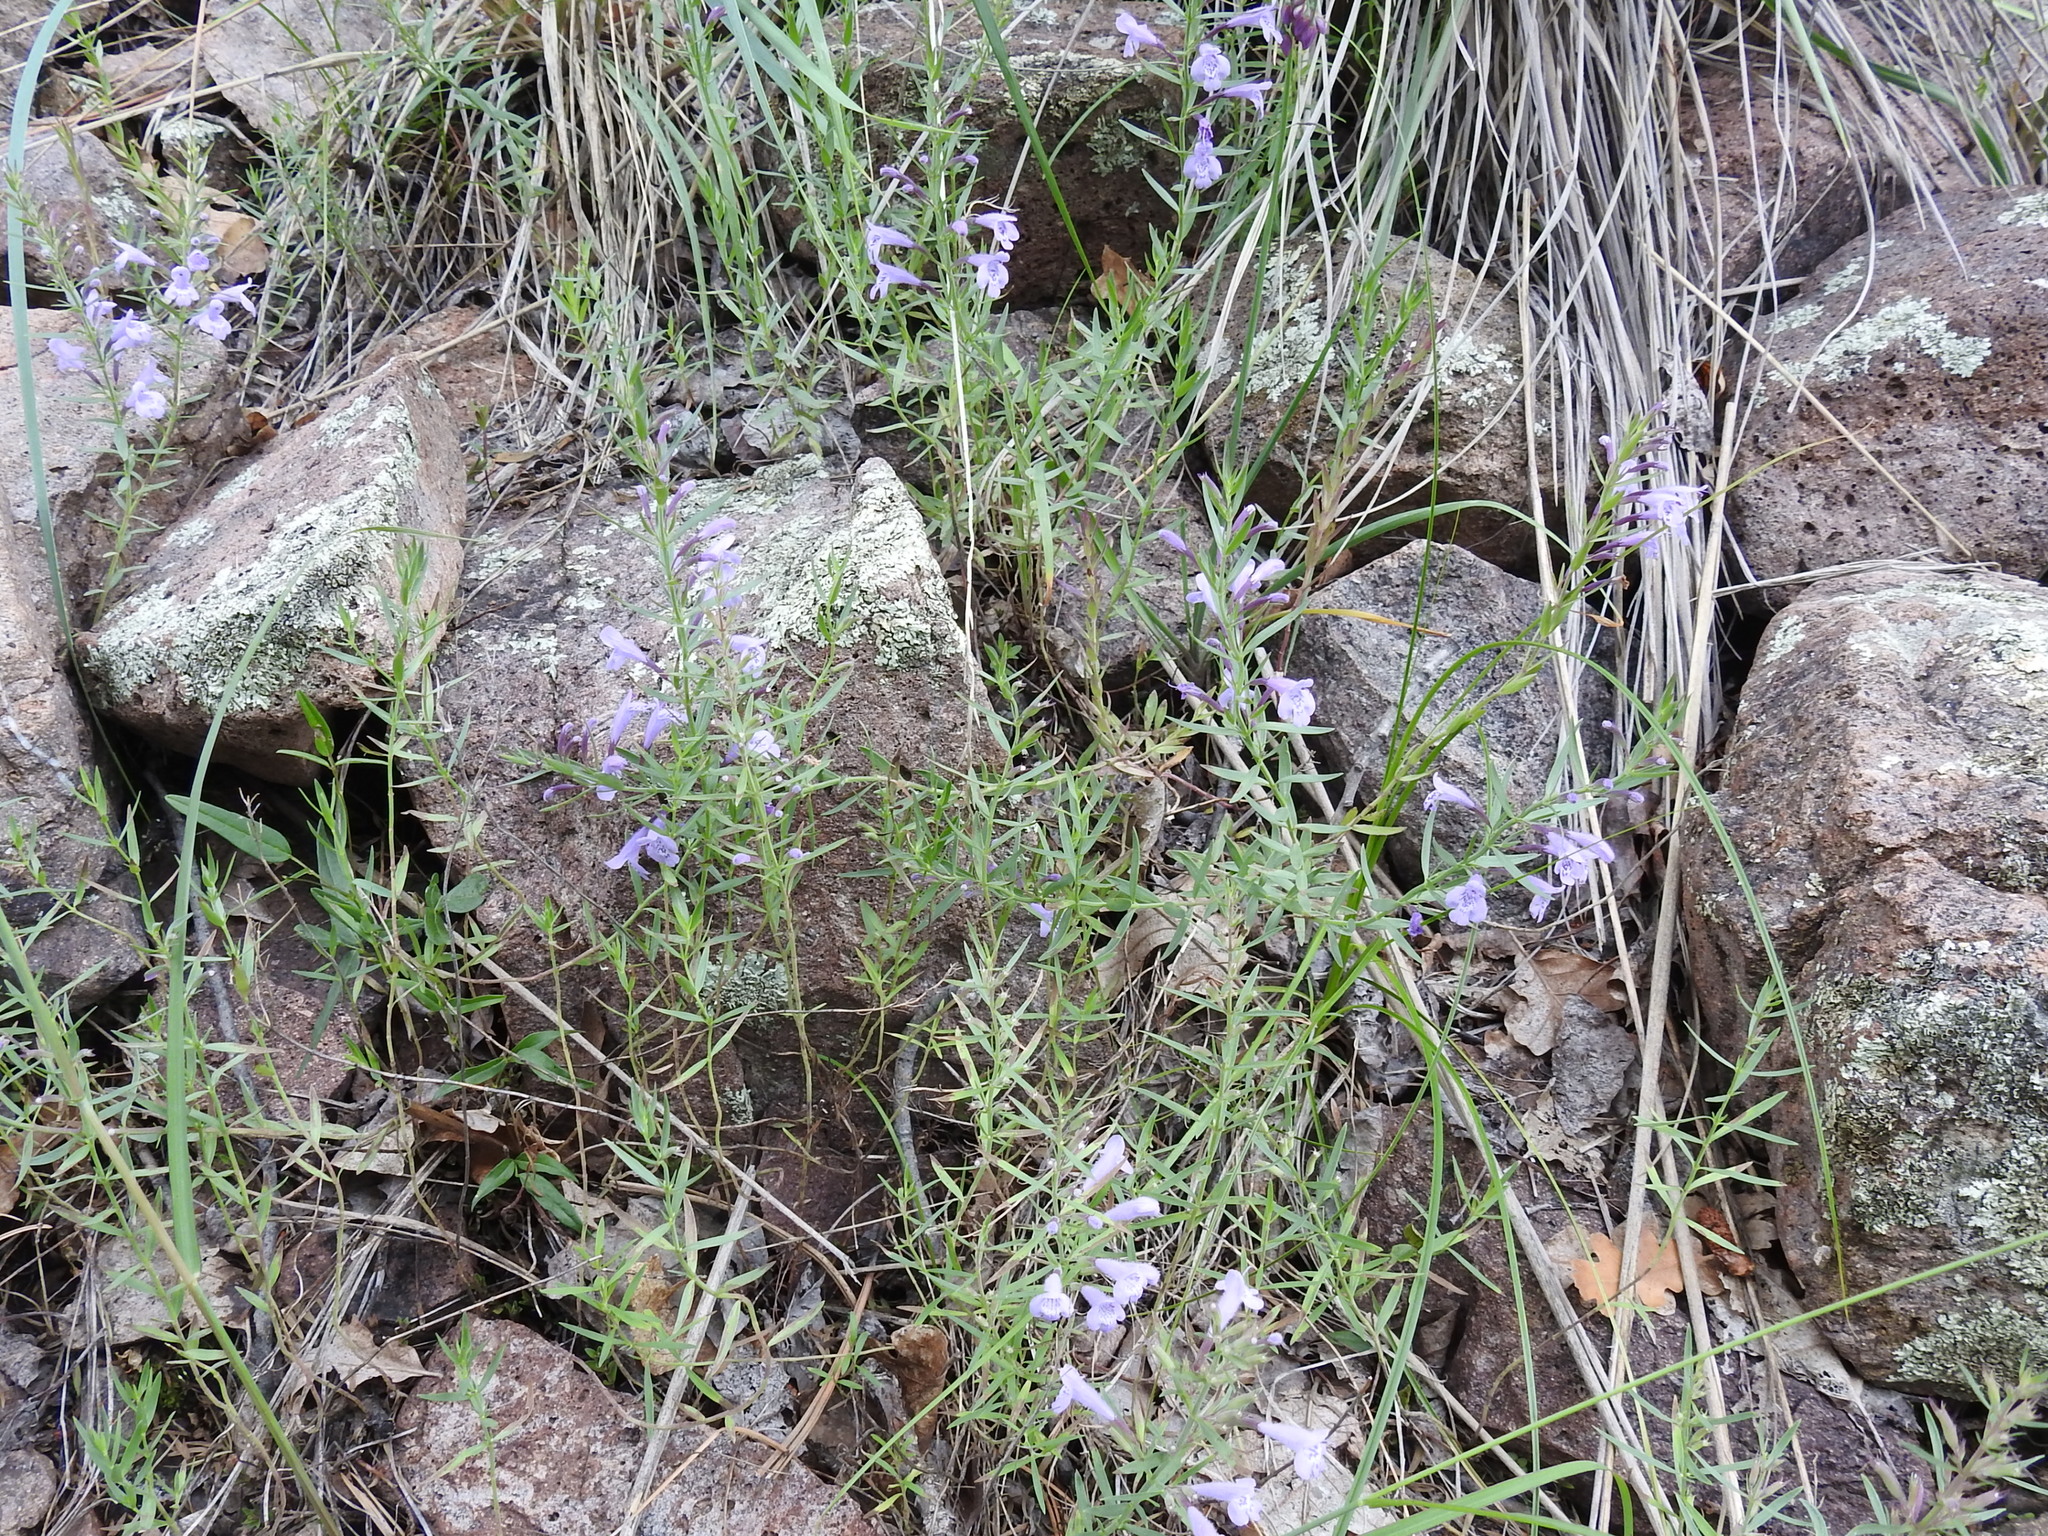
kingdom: Plantae
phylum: Tracheophyta
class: Magnoliopsida
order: Lamiales
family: Lamiaceae
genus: Hedeoma
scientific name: Hedeoma hyssopifolia
